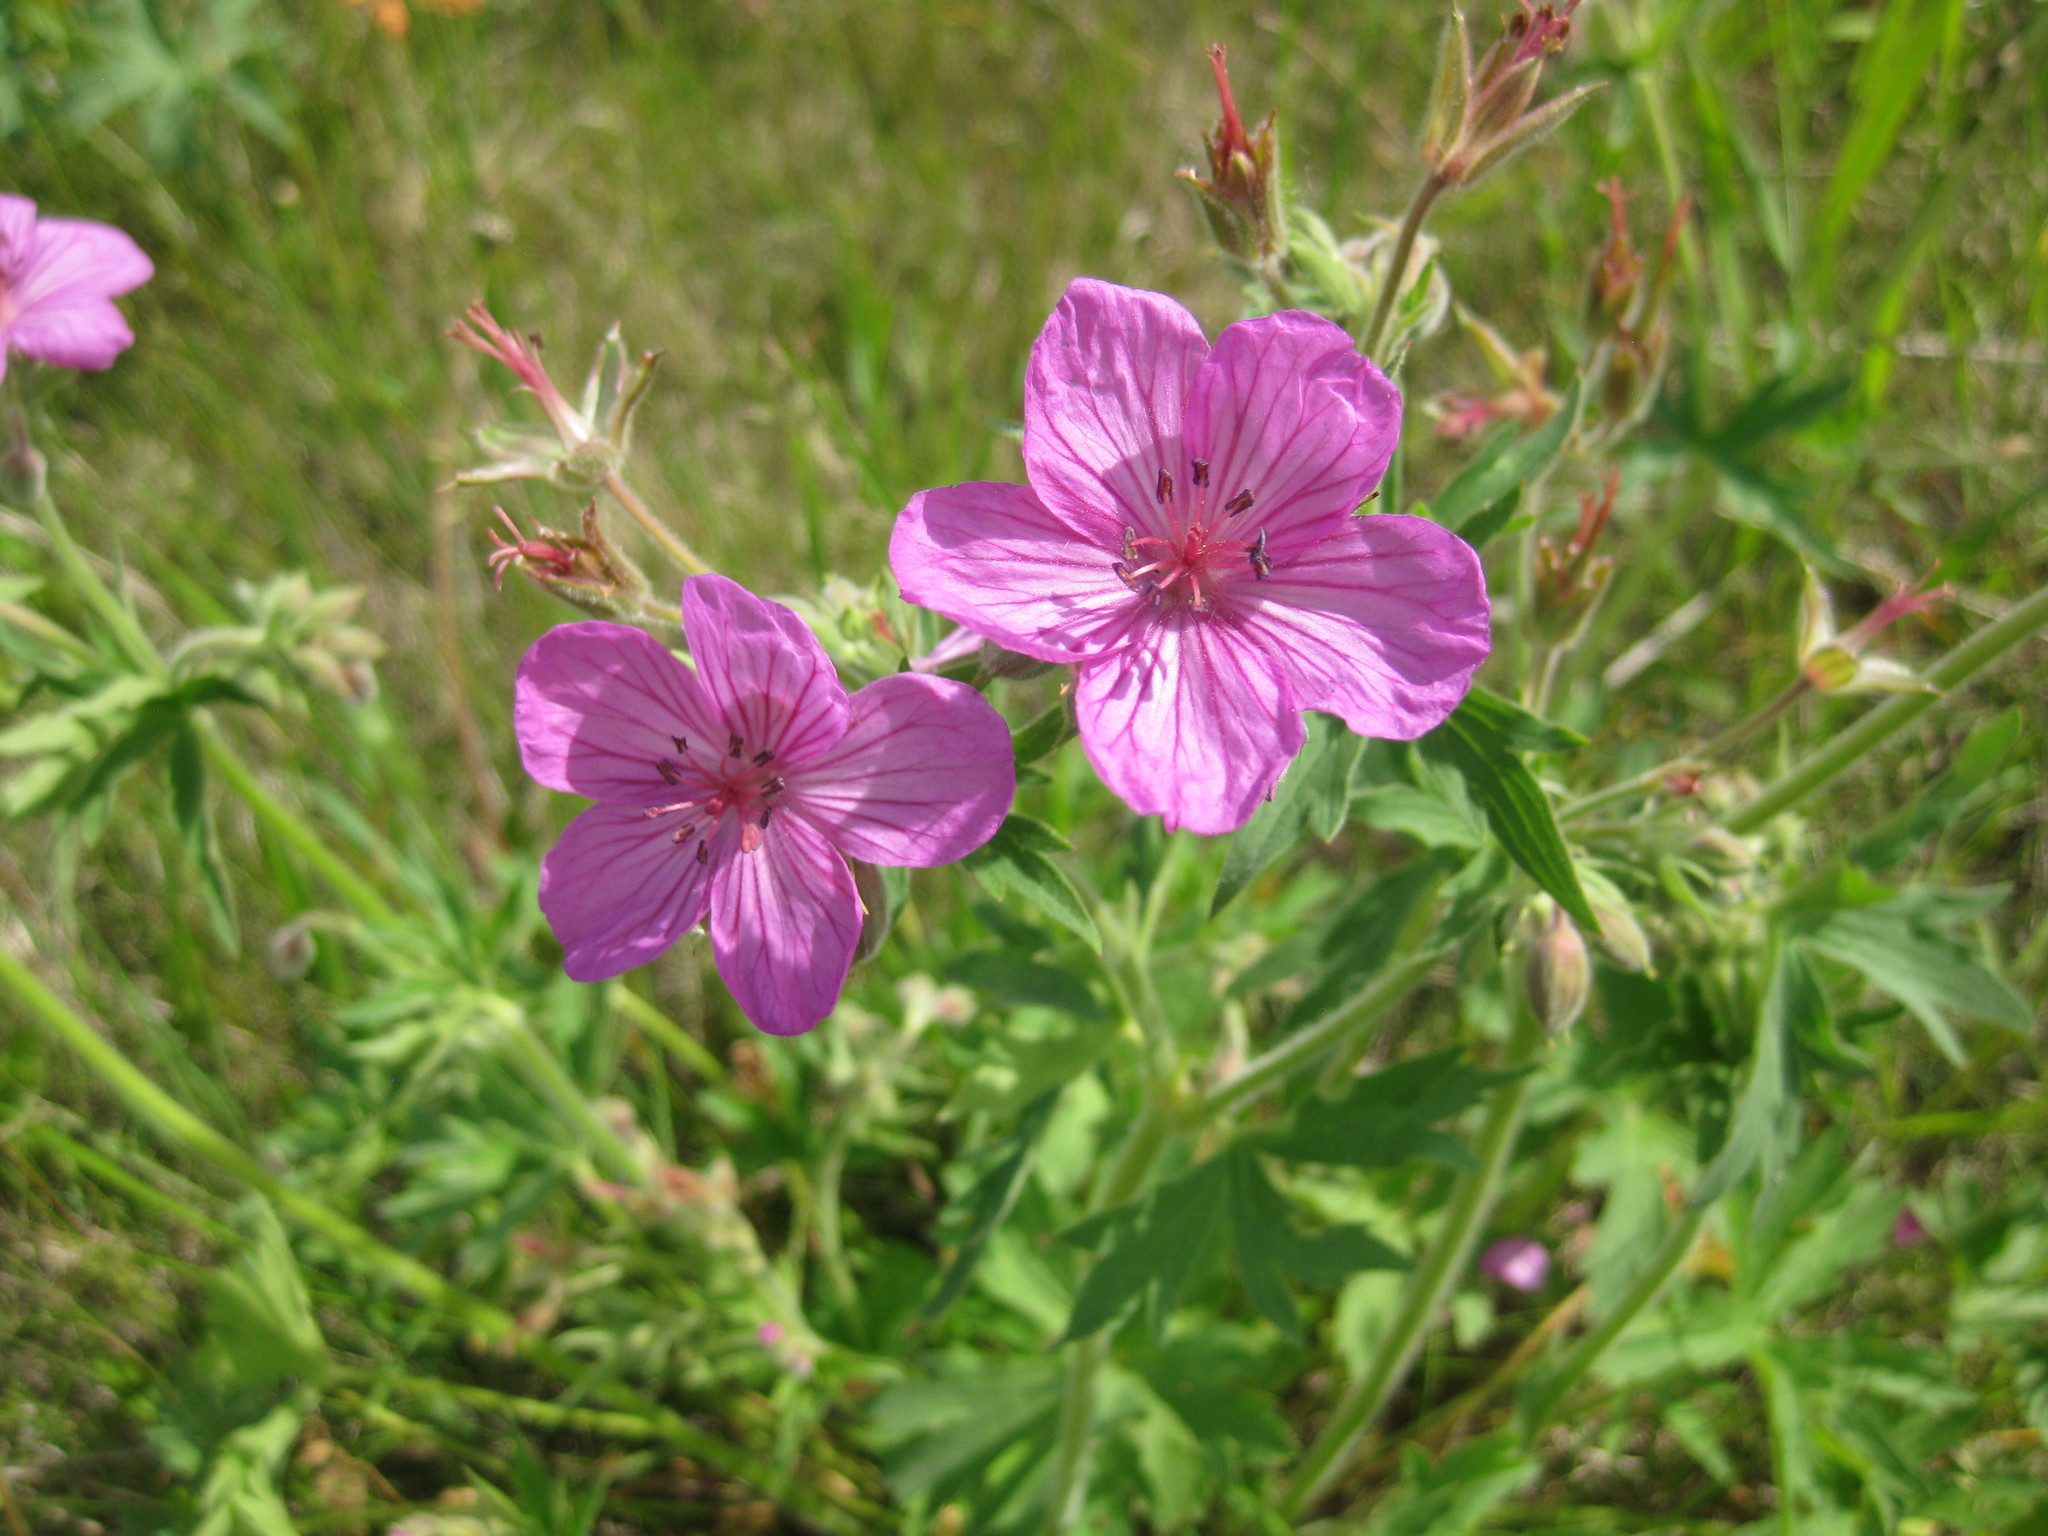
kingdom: Plantae
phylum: Tracheophyta
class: Magnoliopsida
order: Geraniales
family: Geraniaceae
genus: Geranium
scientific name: Geranium viscosissimum
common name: Purple geranium
